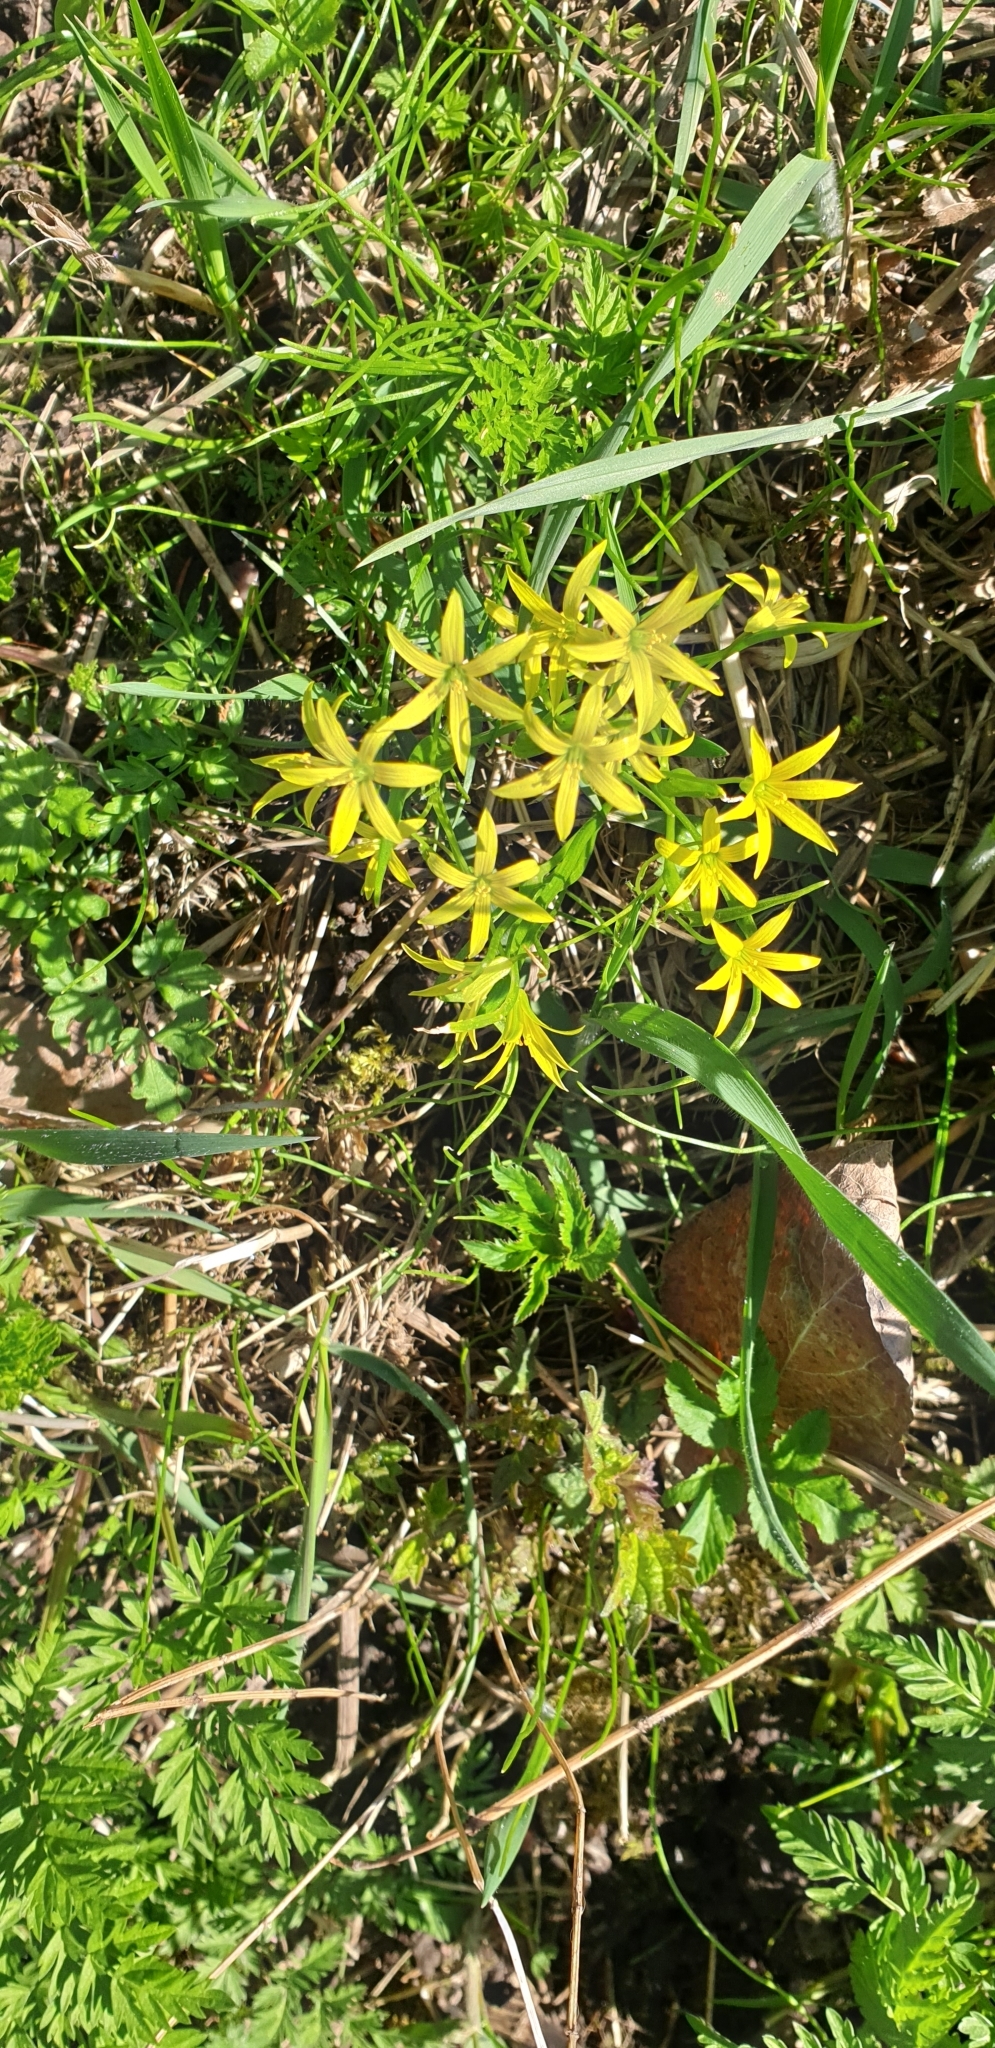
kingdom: Plantae
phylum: Tracheophyta
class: Liliopsida
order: Liliales
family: Liliaceae
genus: Gagea
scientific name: Gagea minima
